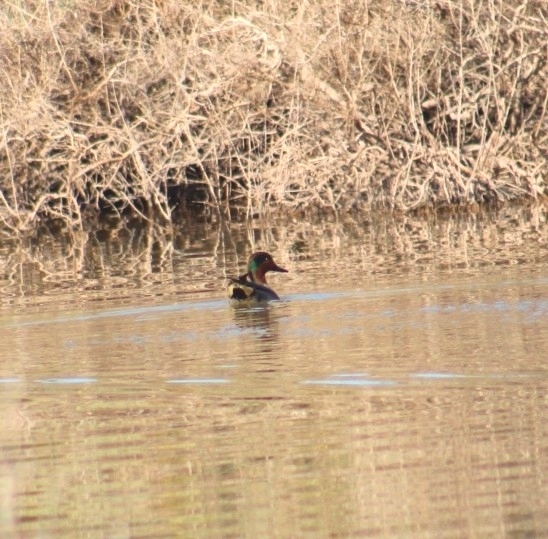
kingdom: Animalia
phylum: Chordata
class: Aves
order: Anseriformes
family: Anatidae
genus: Anas
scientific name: Anas crecca
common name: Eurasian teal
